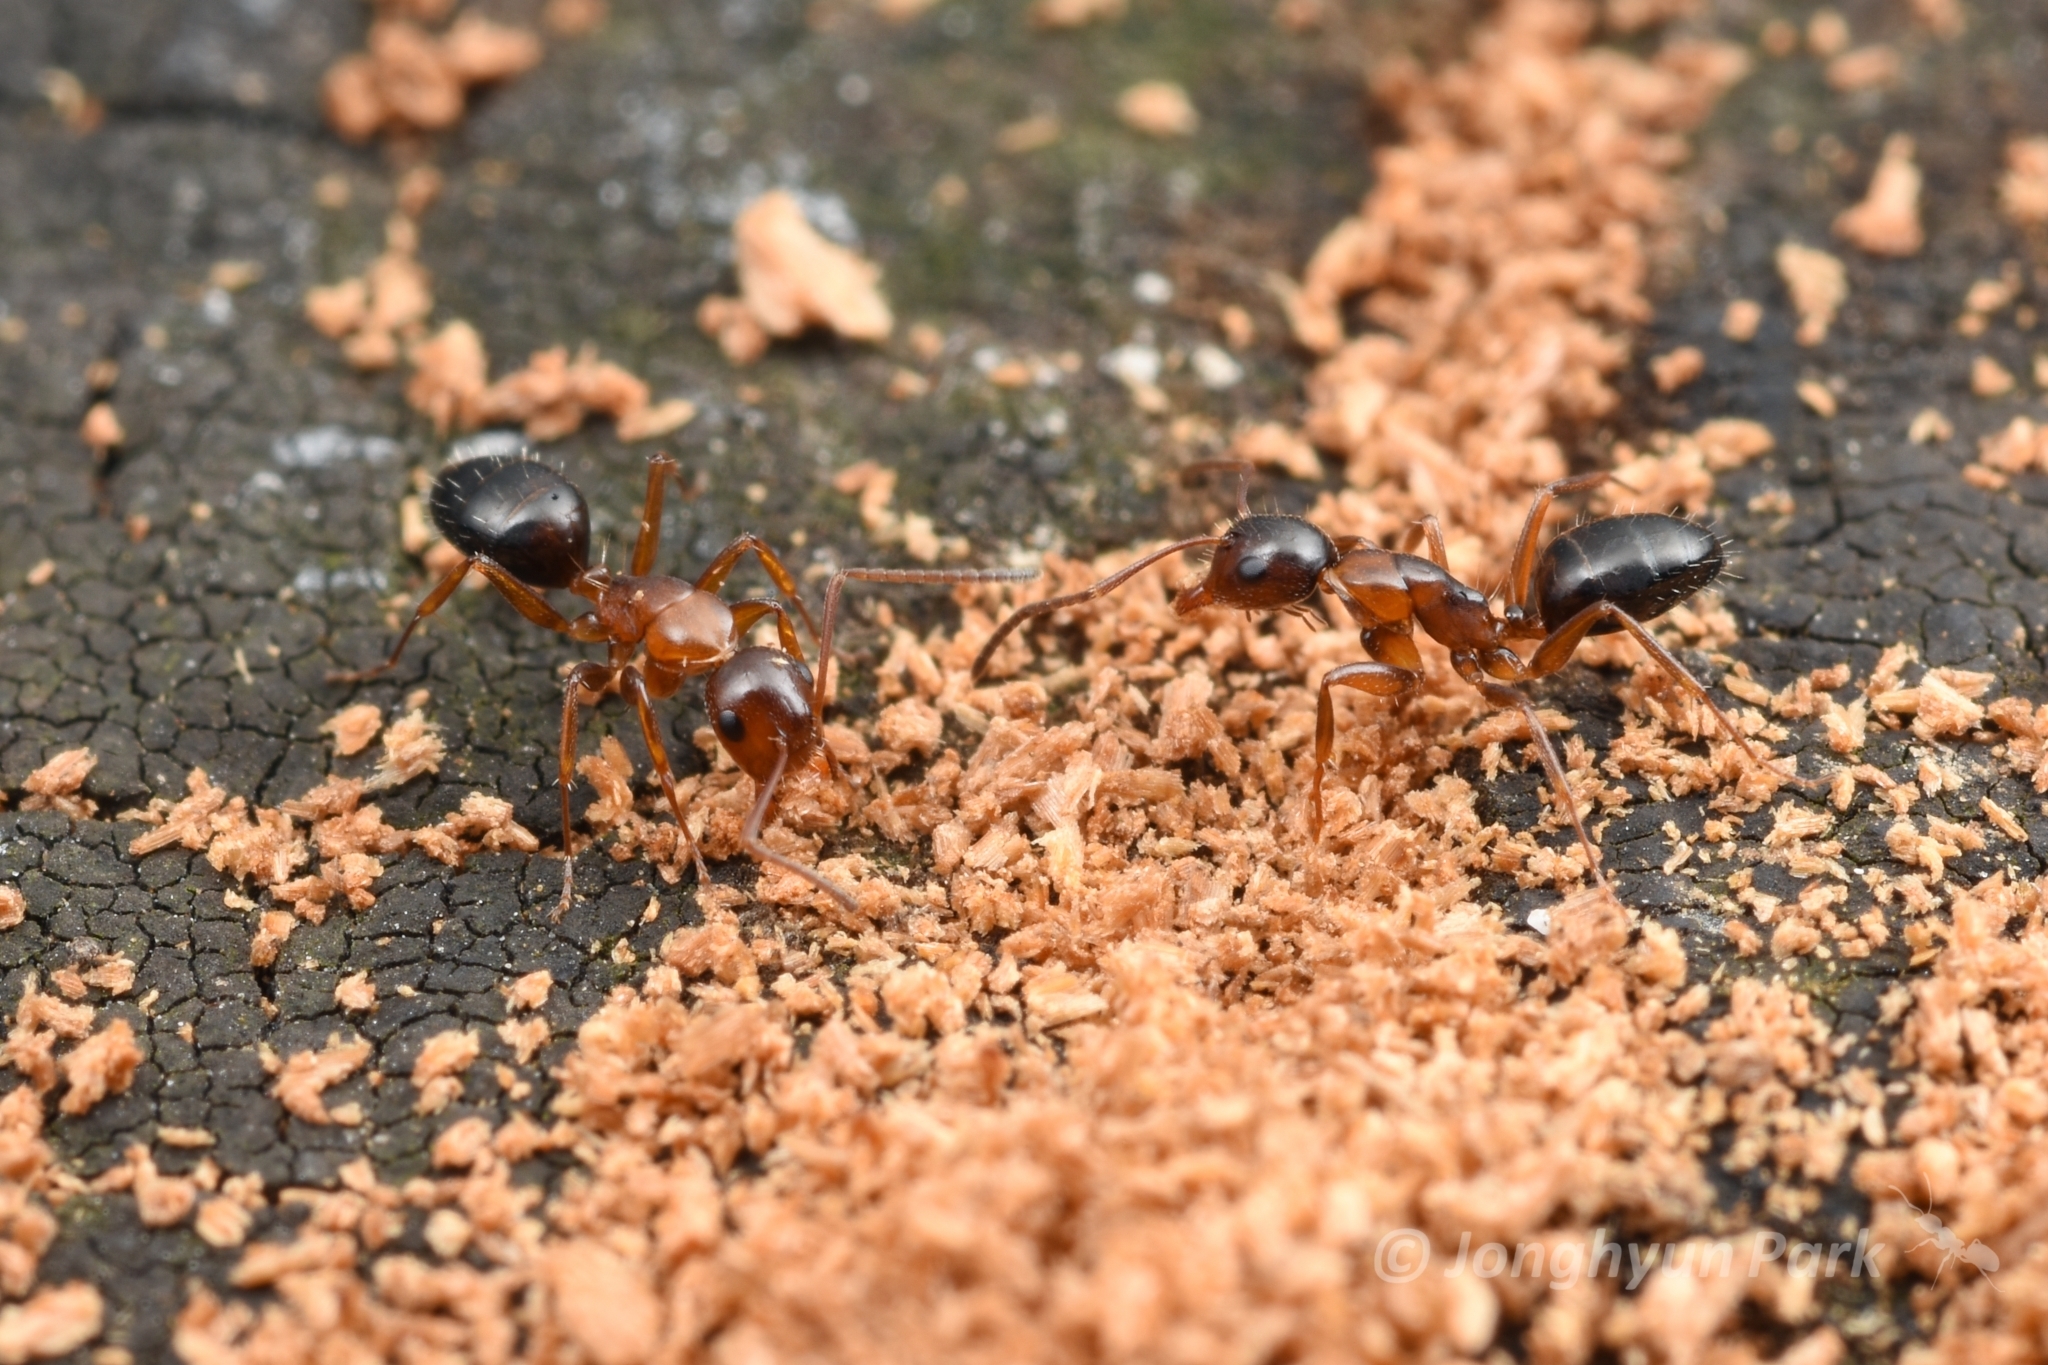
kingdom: Animalia
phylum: Arthropoda
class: Insecta
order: Hymenoptera
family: Formicidae
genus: Camponotus
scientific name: Camponotus vitiosus
